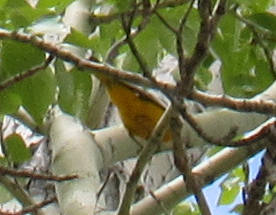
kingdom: Animalia
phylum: Chordata
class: Aves
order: Passeriformes
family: Icteridae
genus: Icterus
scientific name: Icterus bullockii
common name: Bullock's oriole
